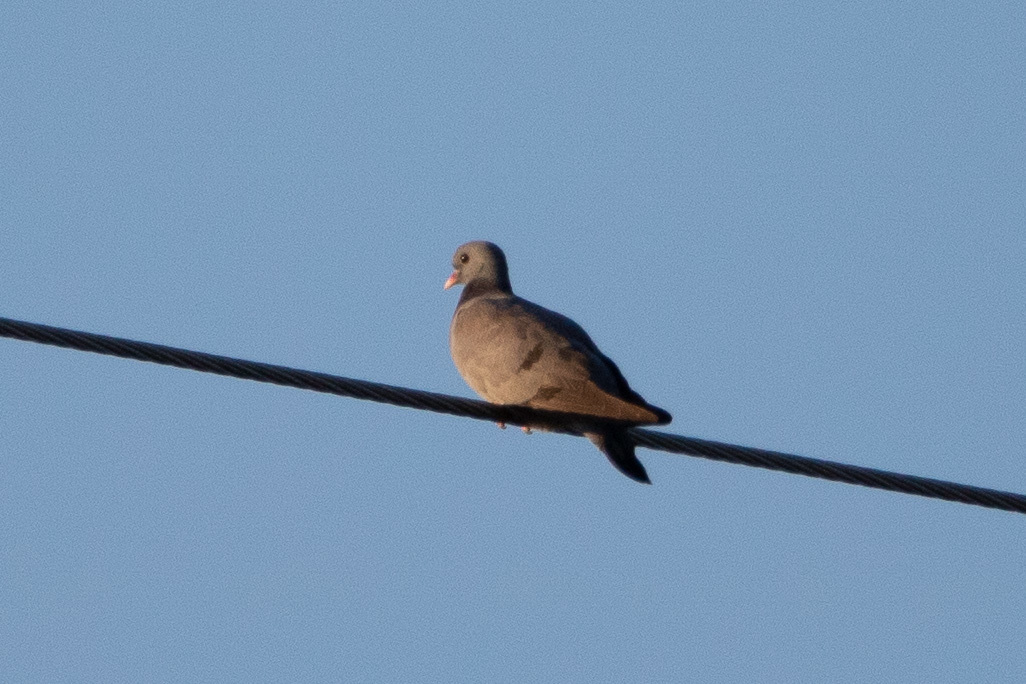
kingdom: Animalia
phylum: Chordata
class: Aves
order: Columbiformes
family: Columbidae
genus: Columba
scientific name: Columba oenas
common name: Stock dove
